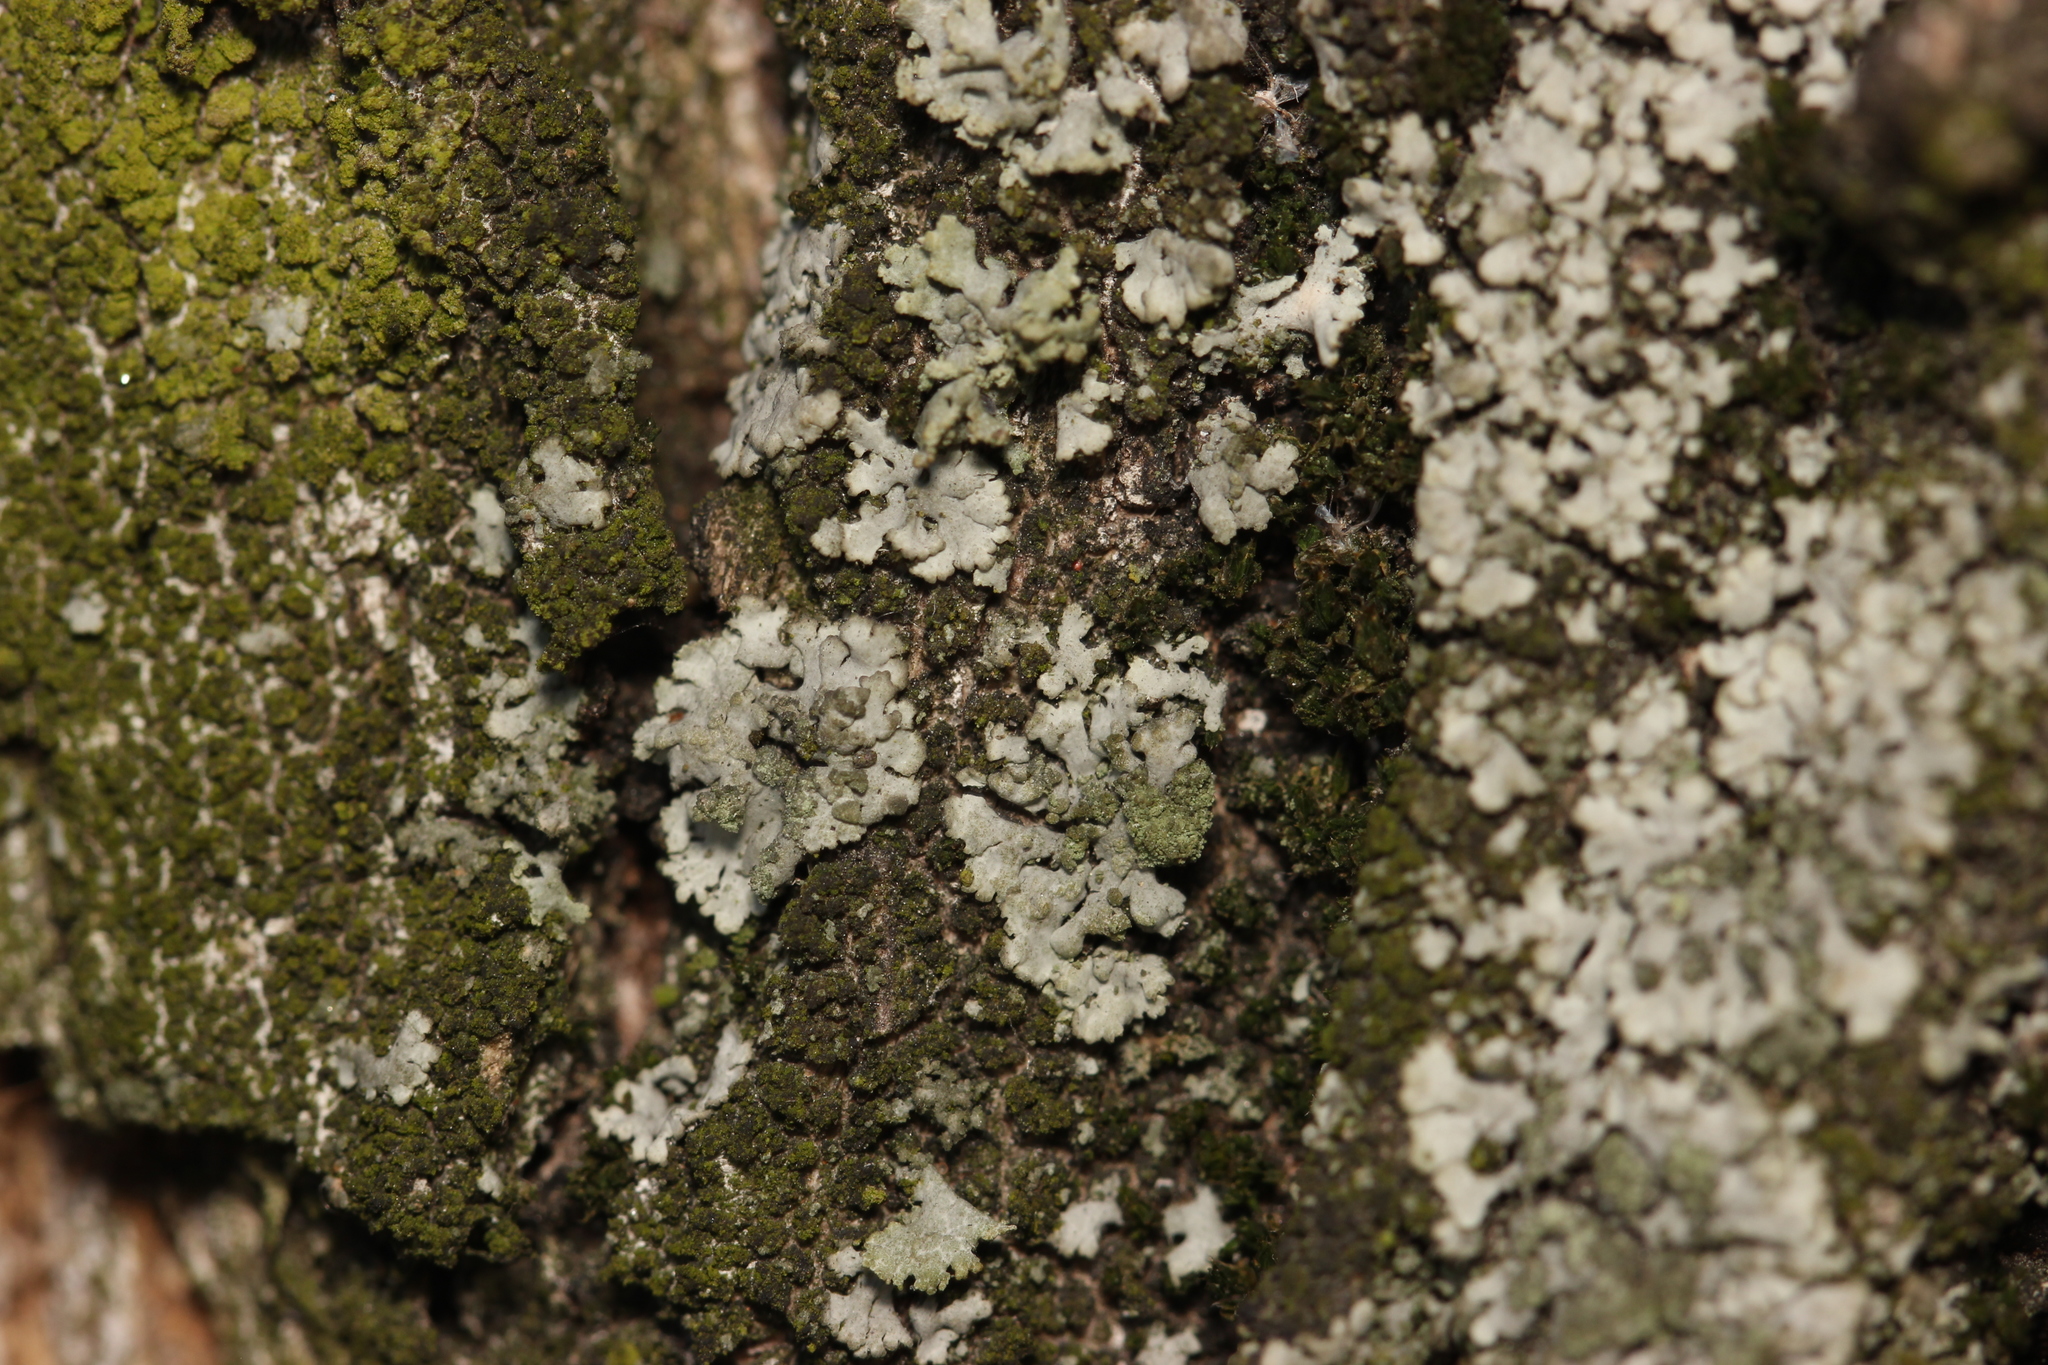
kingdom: Fungi
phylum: Ascomycota
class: Lecanoromycetes
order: Caliciales
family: Physciaceae
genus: Phaeophyscia
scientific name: Phaeophyscia orbicularis
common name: Mealy shadow lichen
